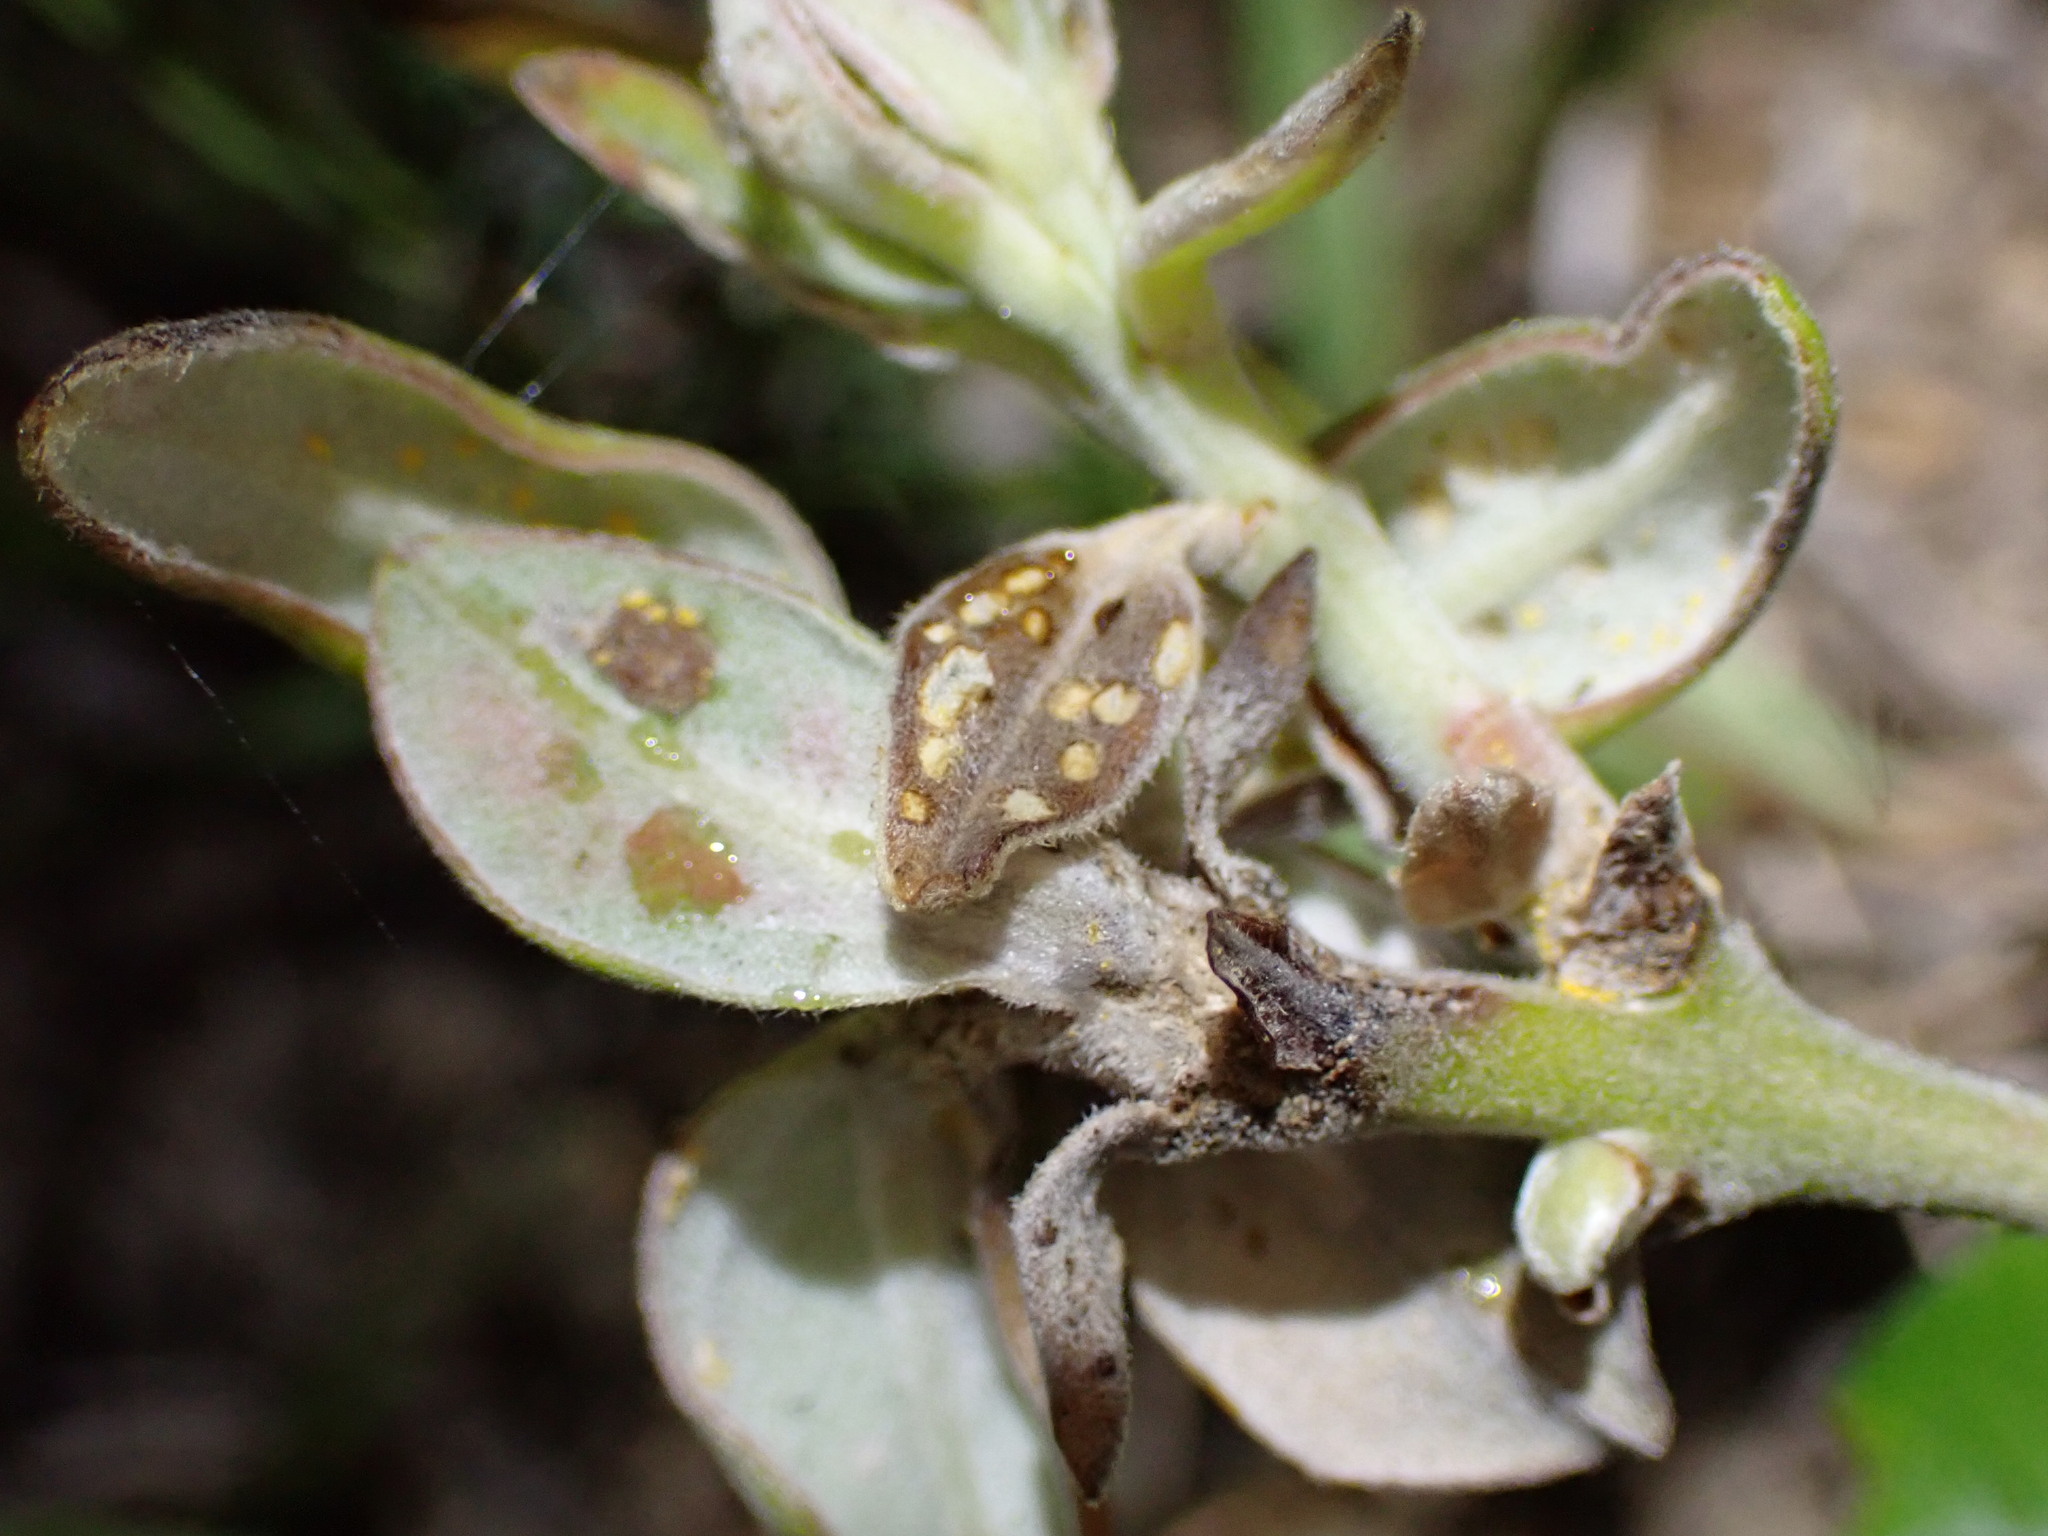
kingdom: Fungi
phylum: Basidiomycota
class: Pucciniomycetes
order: Pucciniales
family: Sphaerophragmiaceae
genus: Austropuccinia
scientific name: Austropuccinia psidii
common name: Myrtle rust
